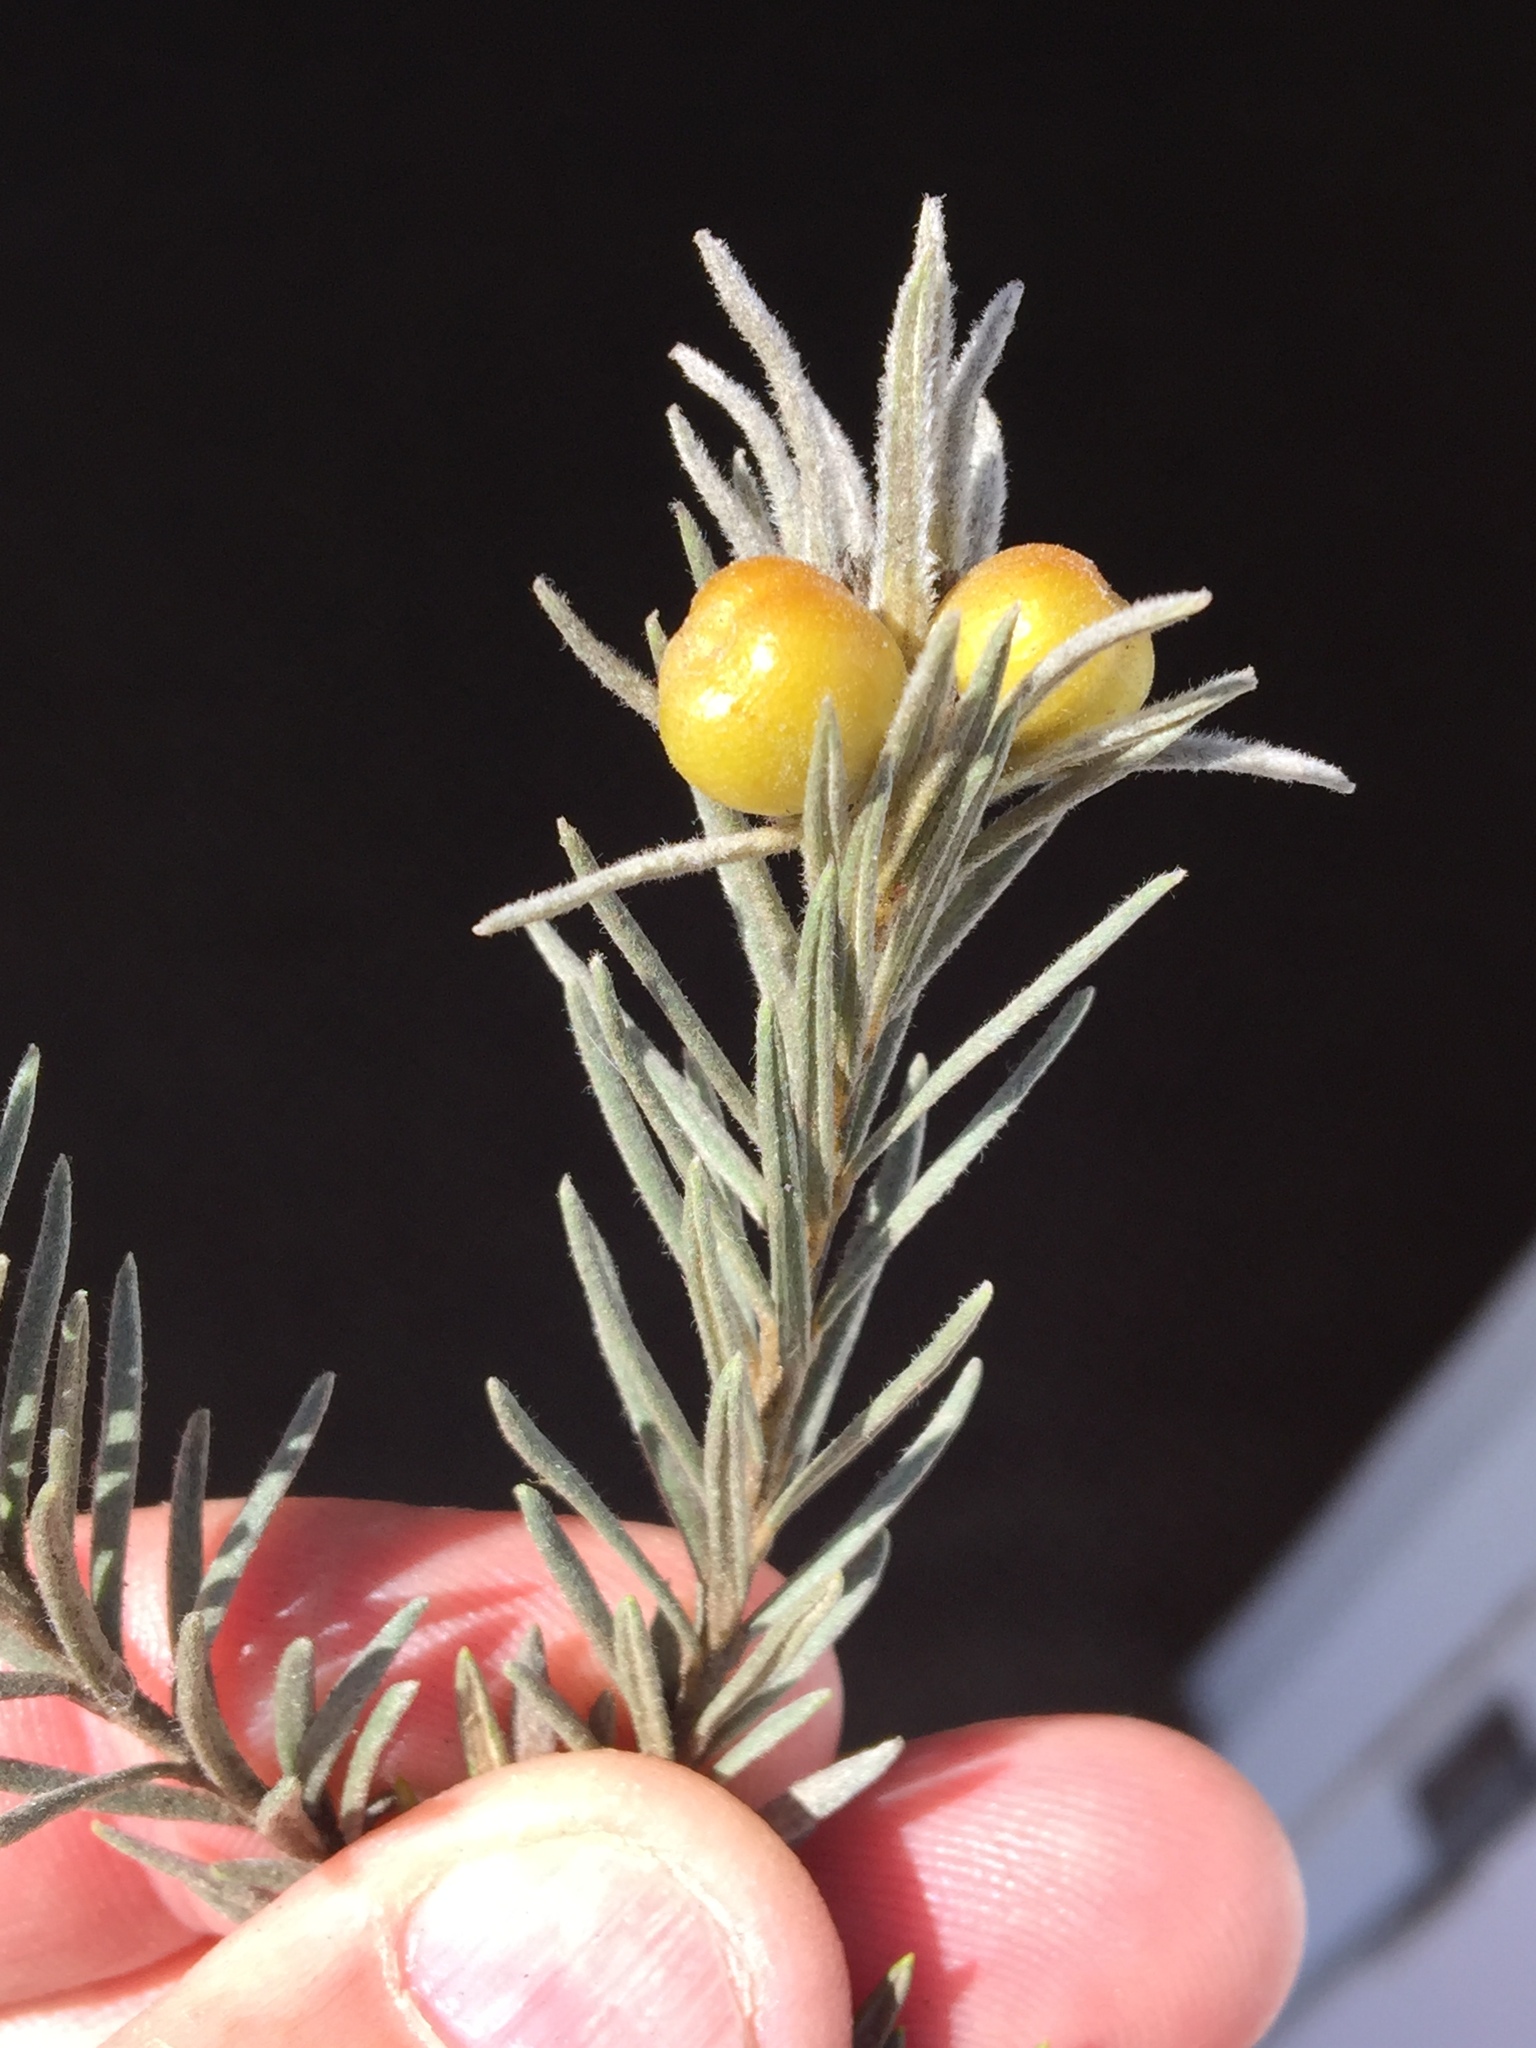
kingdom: Plantae
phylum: Tracheophyta
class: Magnoliopsida
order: Rosales
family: Rhamnaceae
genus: Phylica
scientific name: Phylica velutina
